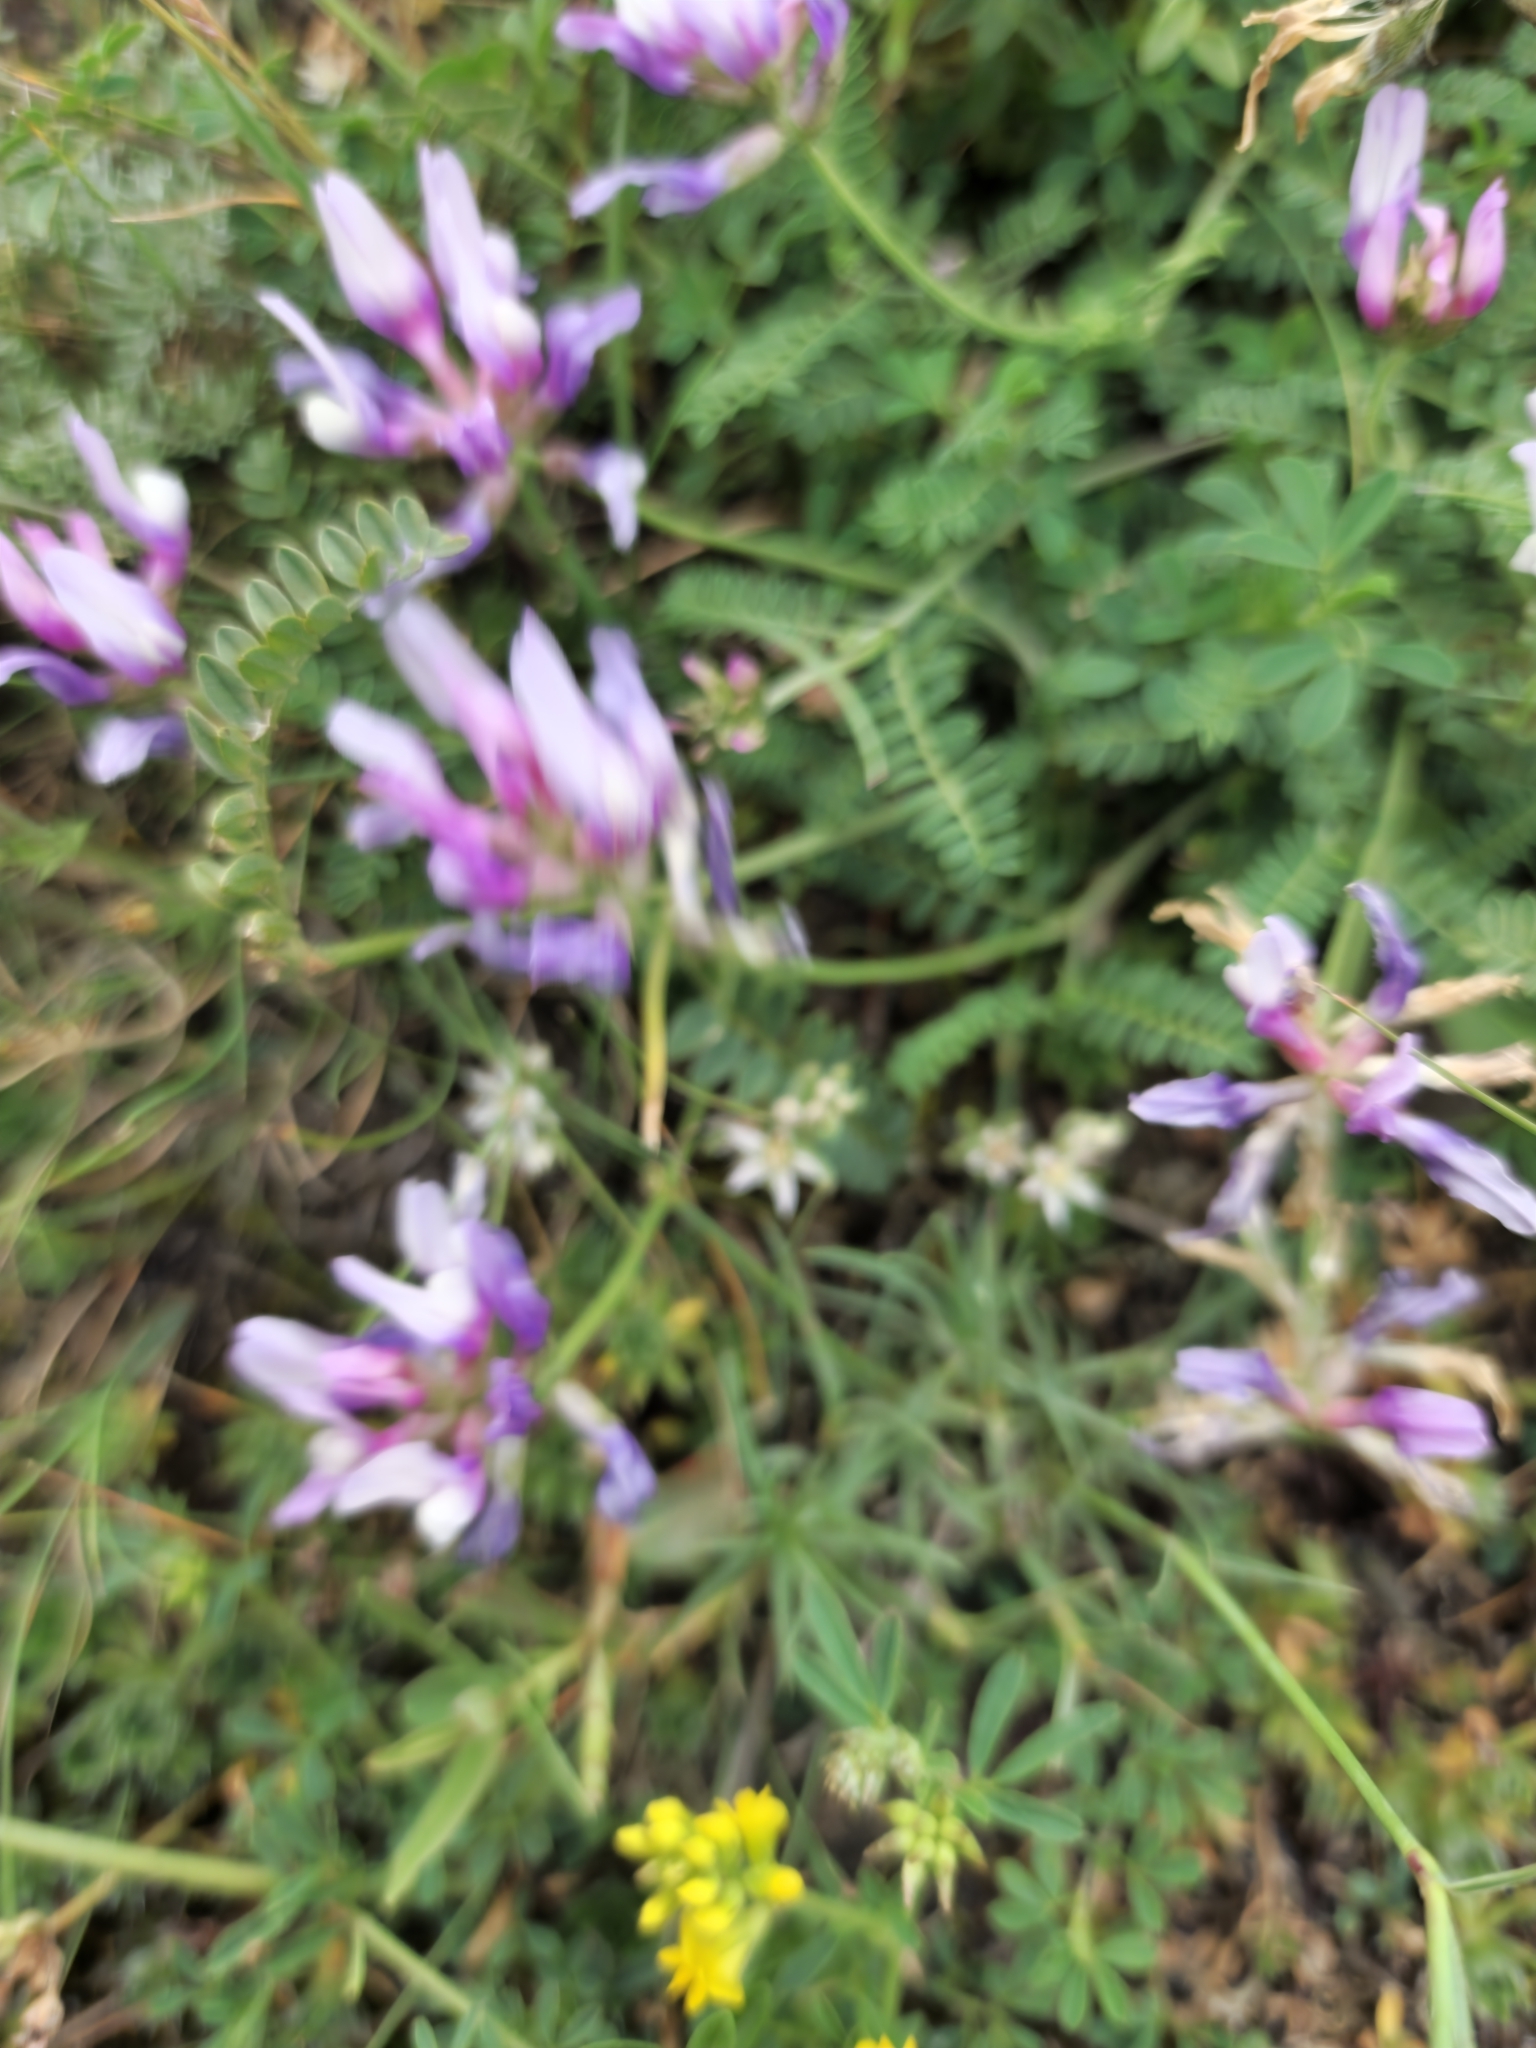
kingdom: Plantae
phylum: Tracheophyta
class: Magnoliopsida
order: Fabales
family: Fabaceae
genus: Astragalus
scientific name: Astragalus captiosus
